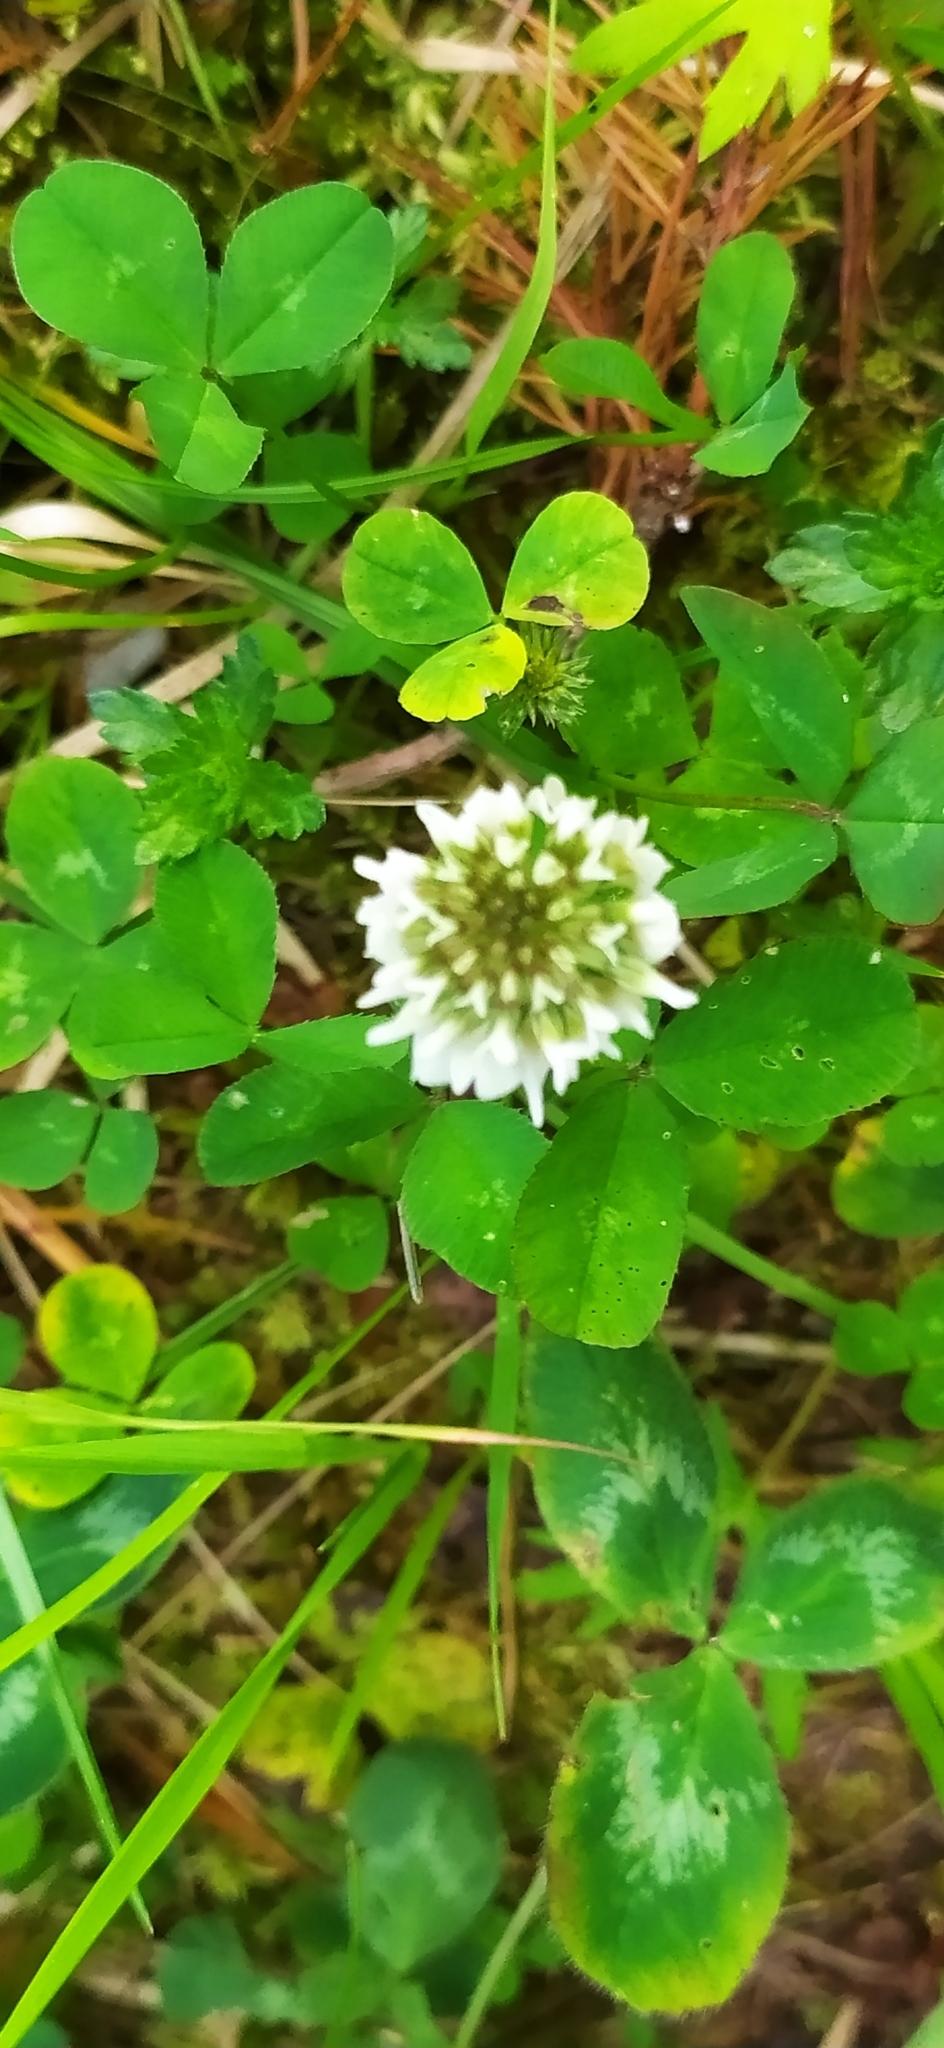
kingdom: Plantae
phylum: Tracheophyta
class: Magnoliopsida
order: Fabales
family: Fabaceae
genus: Trifolium
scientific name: Trifolium repens
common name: White clover
